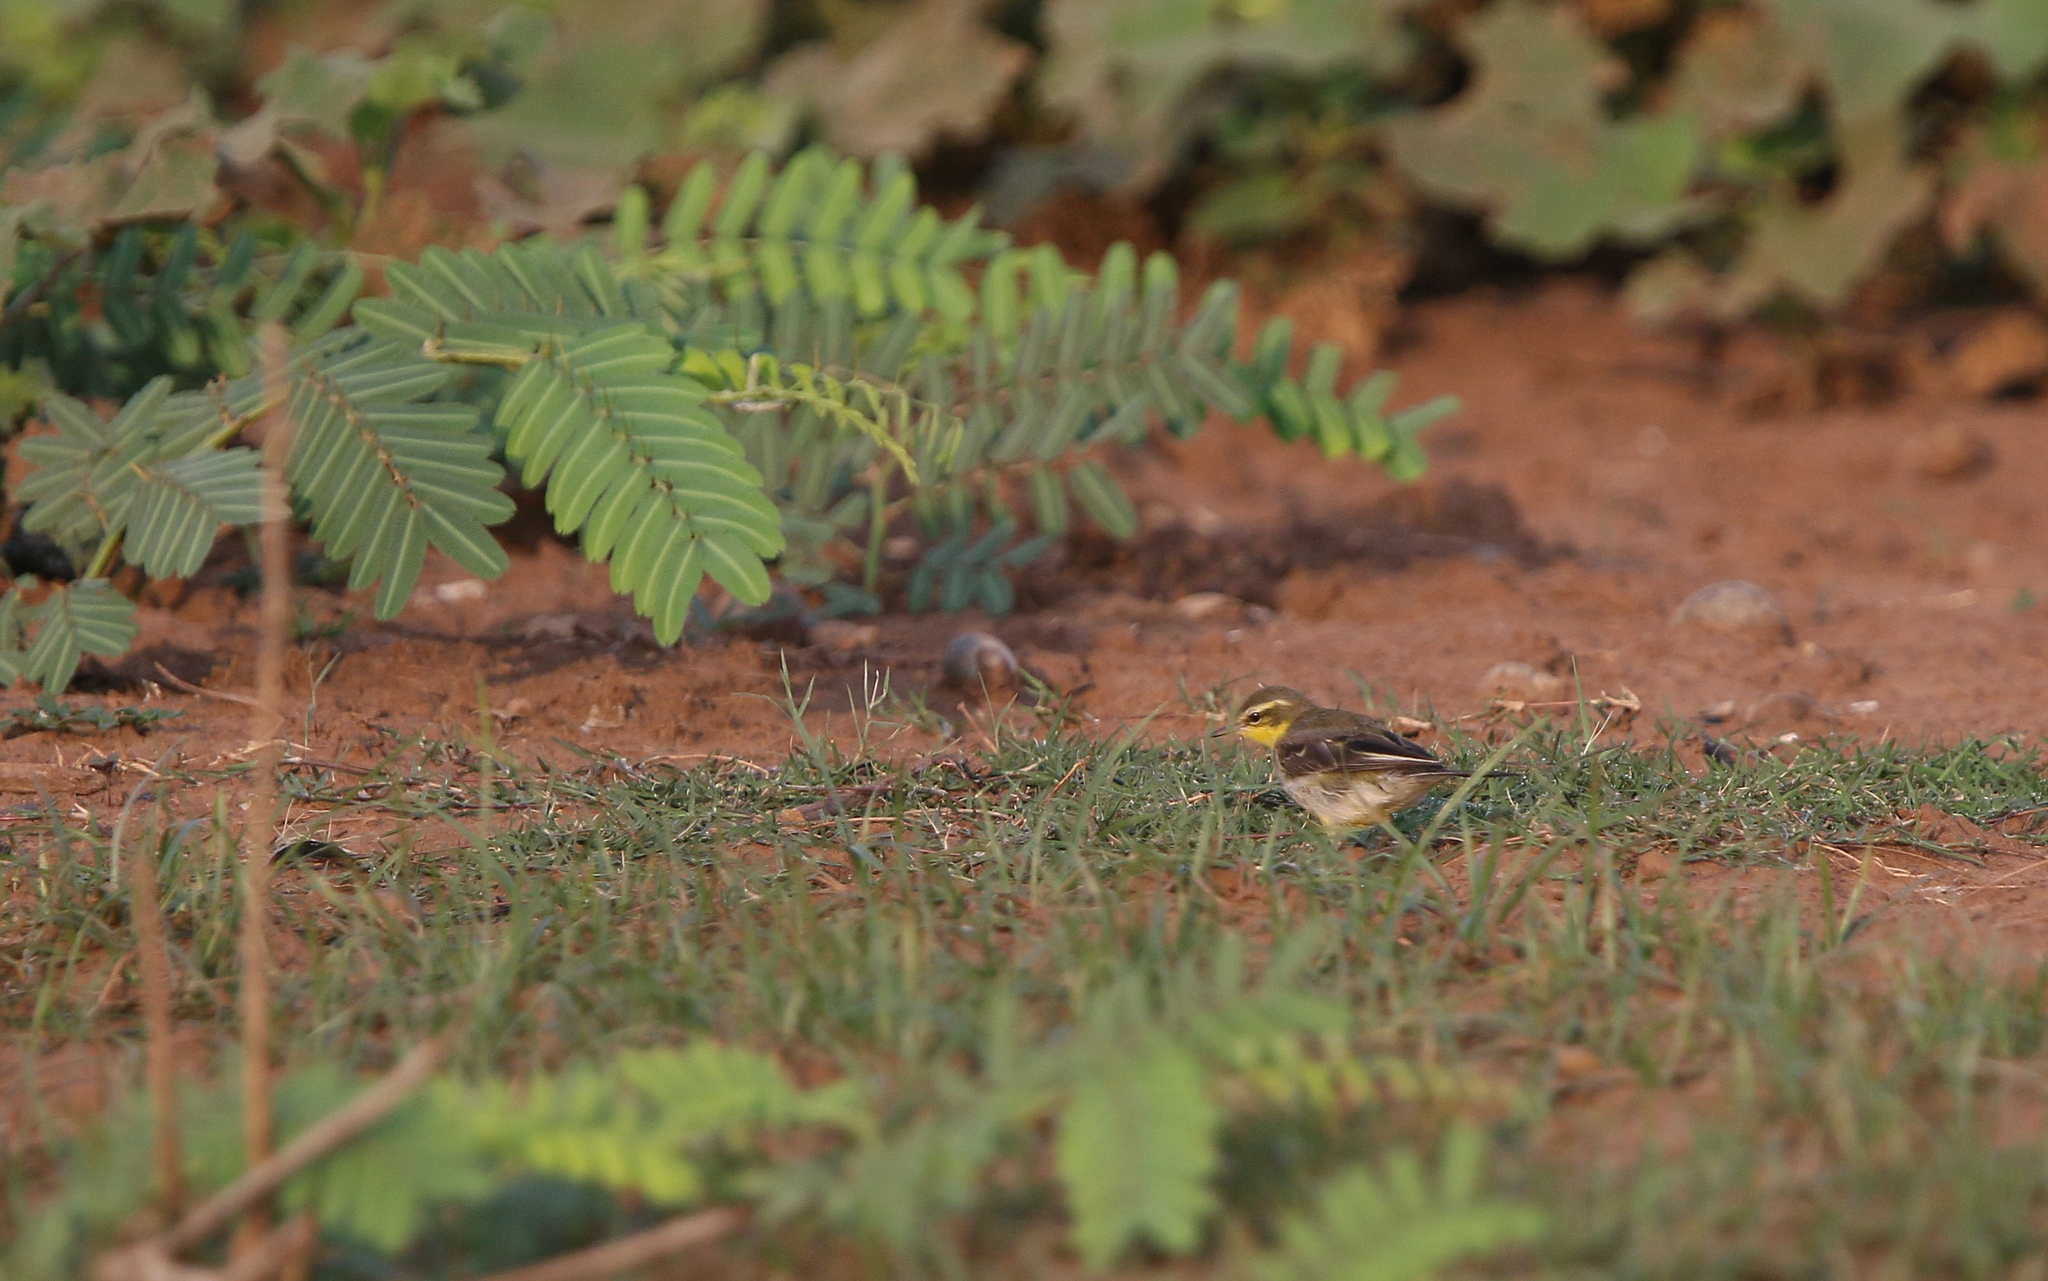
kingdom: Animalia
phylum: Chordata
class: Aves
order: Passeriformes
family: Motacillidae
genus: Motacilla
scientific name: Motacilla tschutschensis
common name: Eastern yellow wagtail
